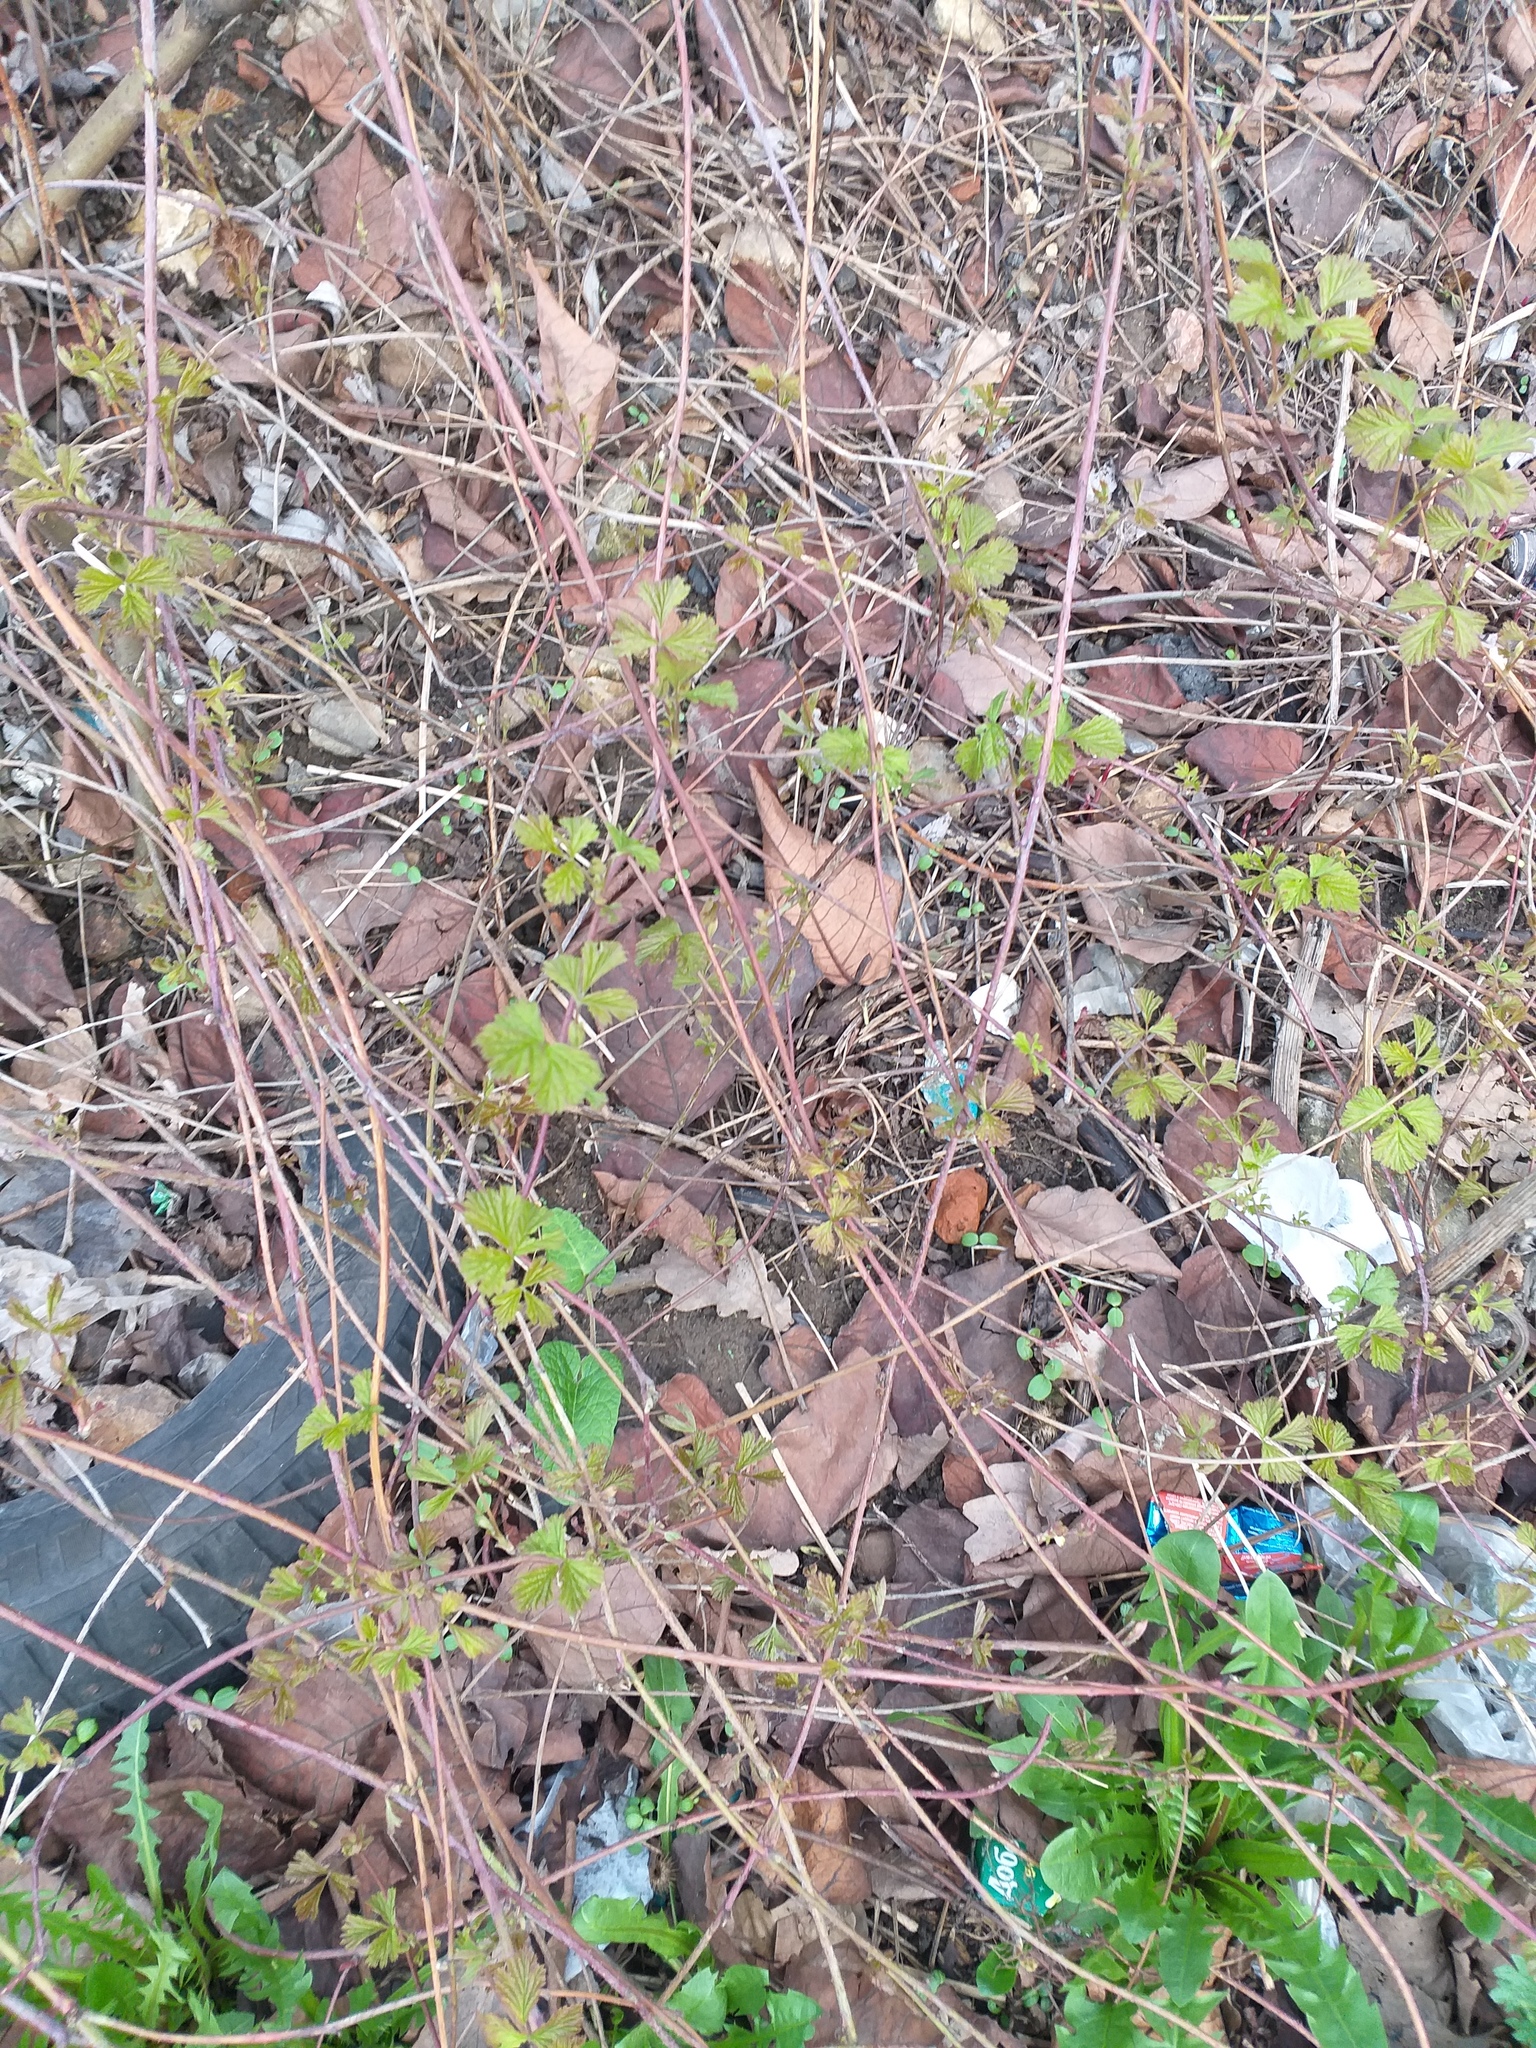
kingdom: Plantae
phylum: Tracheophyta
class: Magnoliopsida
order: Rosales
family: Rosaceae
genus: Rubus
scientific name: Rubus caesius
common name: Dewberry
